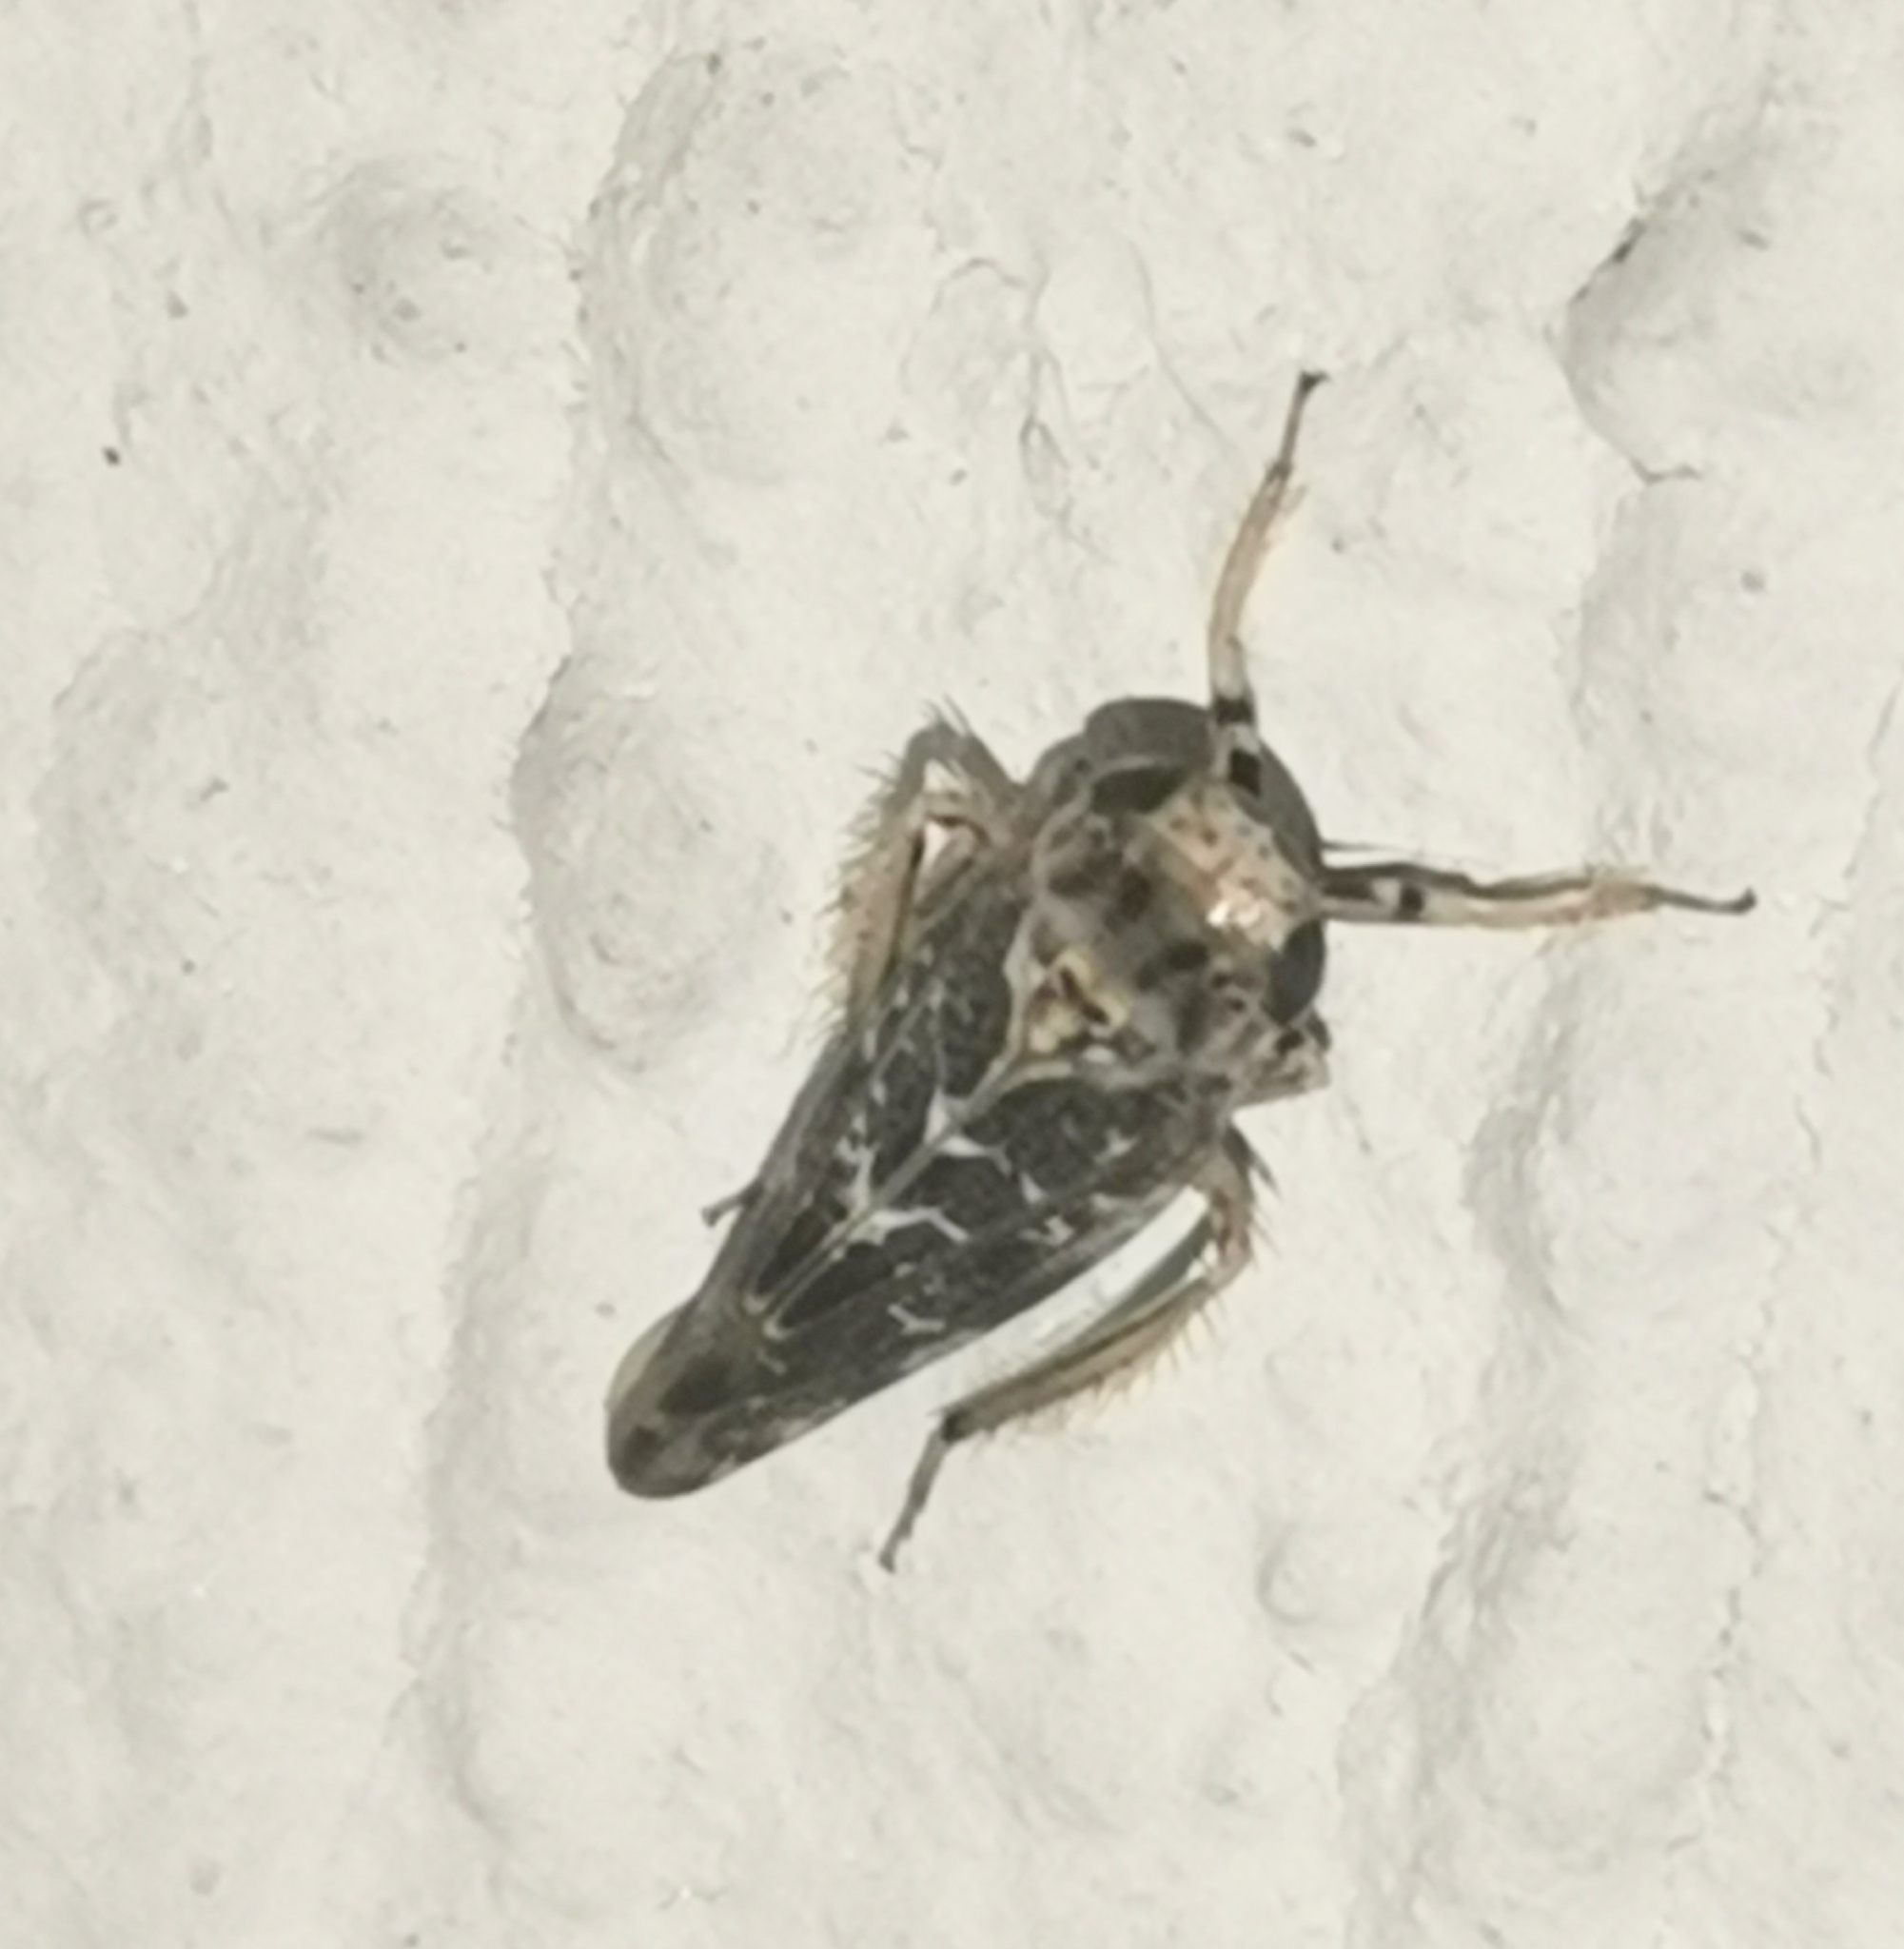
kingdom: Animalia
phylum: Arthropoda
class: Insecta
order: Hemiptera
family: Cicadellidae
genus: Allygus
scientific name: Allygus mixtus
